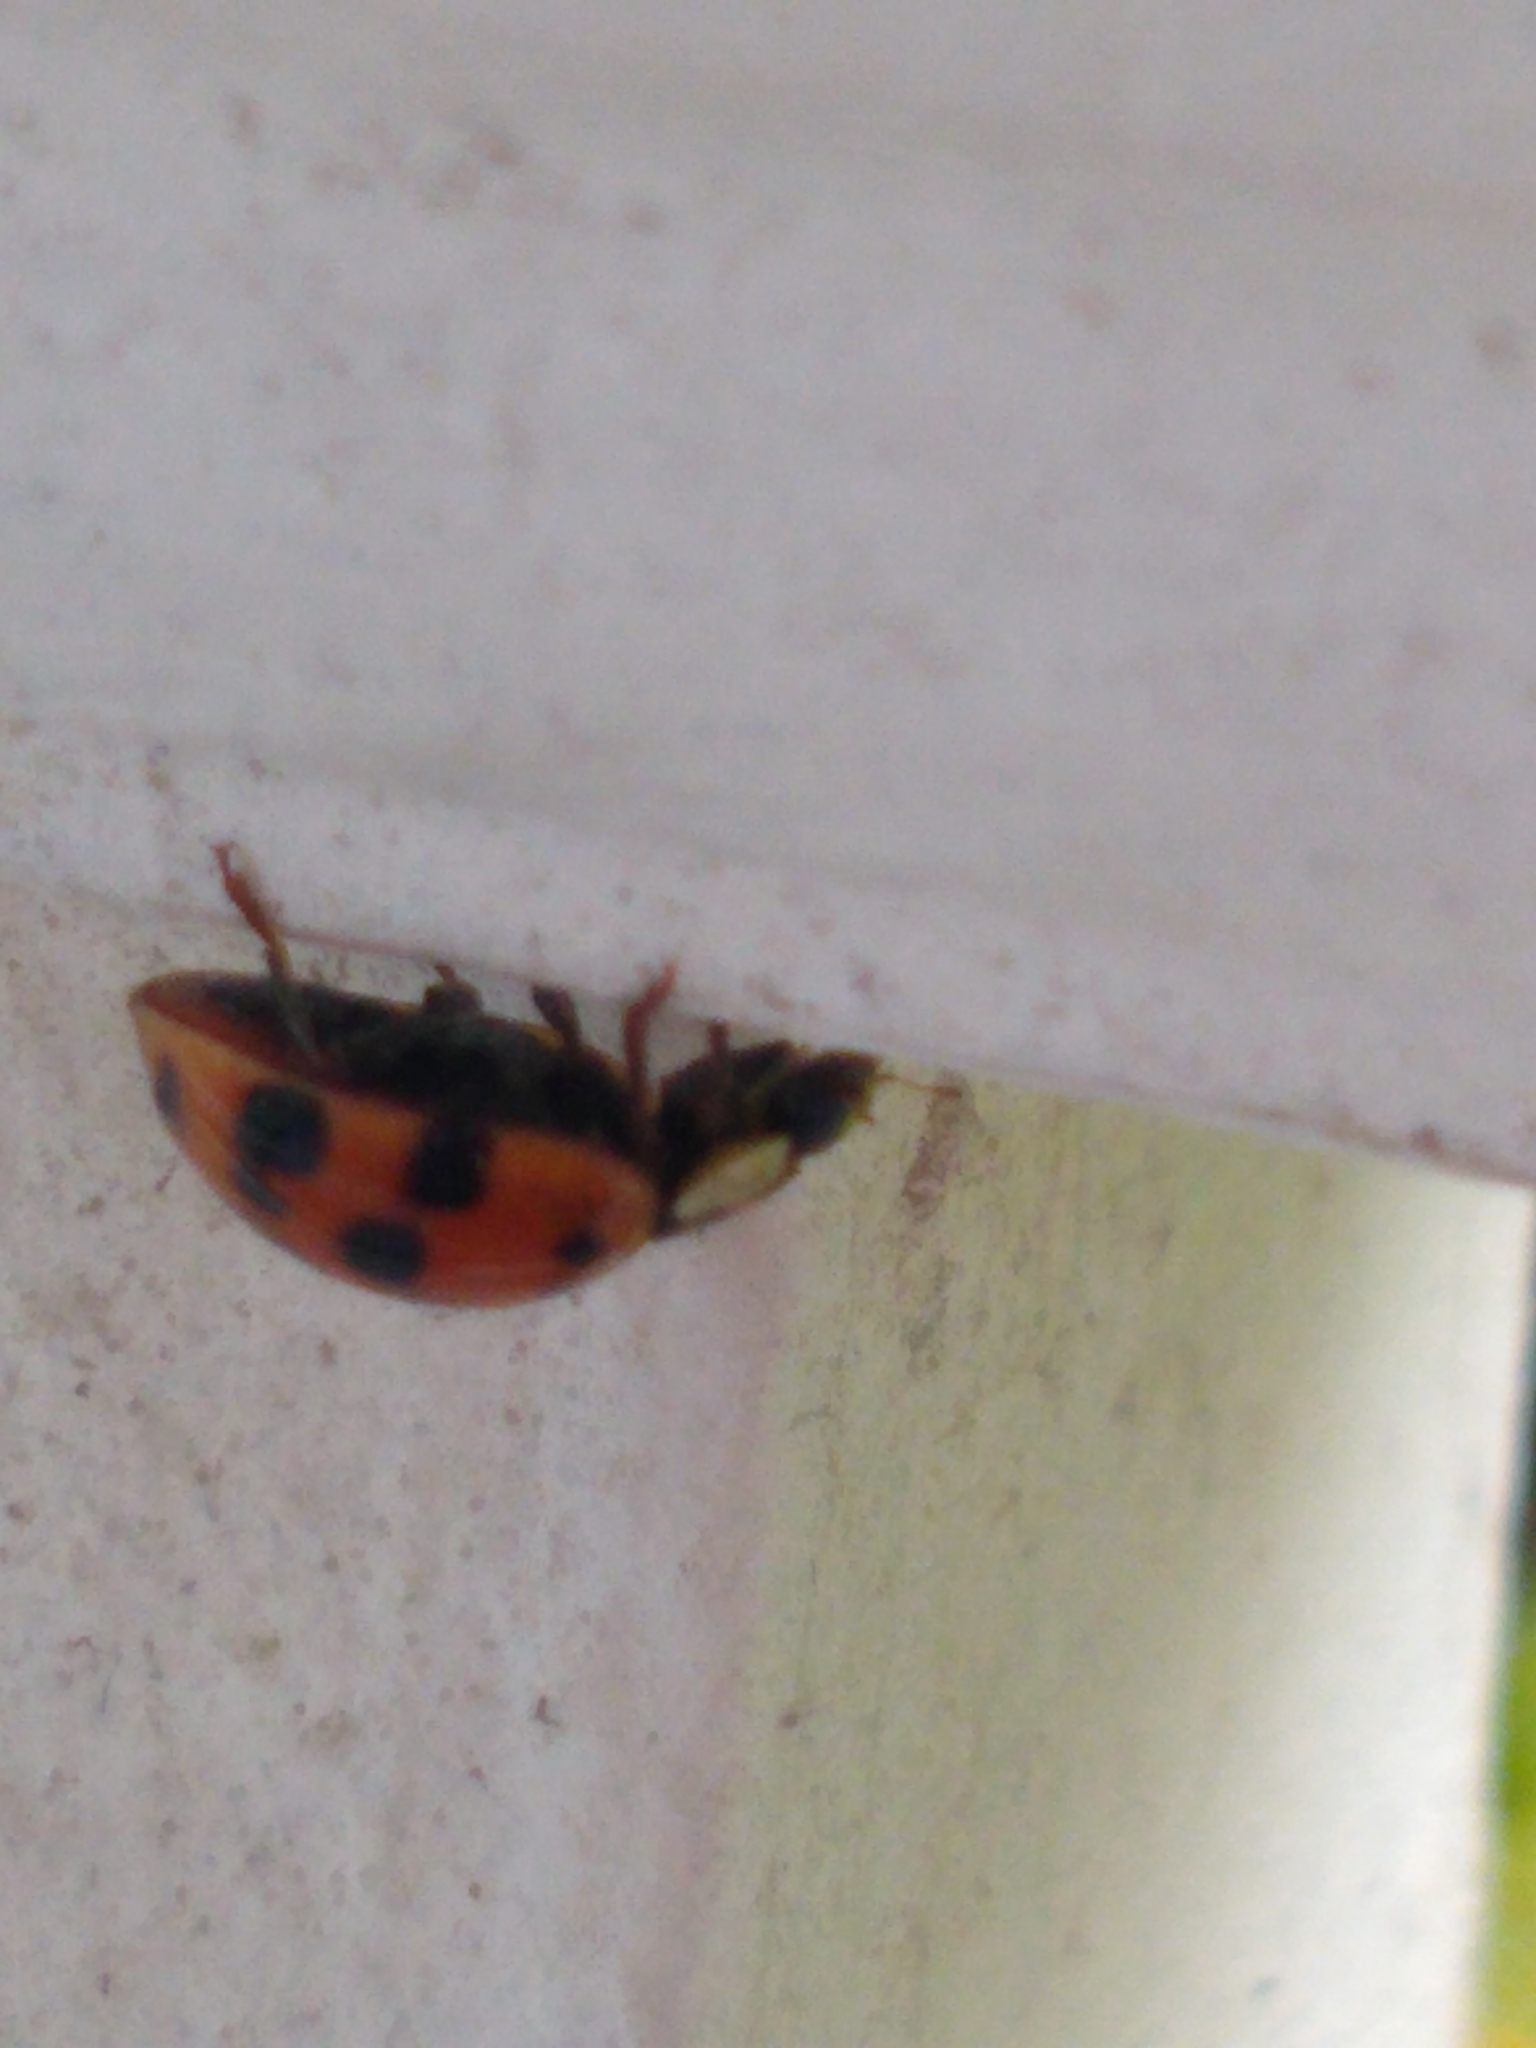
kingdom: Animalia
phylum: Arthropoda
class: Insecta
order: Coleoptera
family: Coccinellidae
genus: Harmonia
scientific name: Harmonia axyridis
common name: Harlequin ladybird
